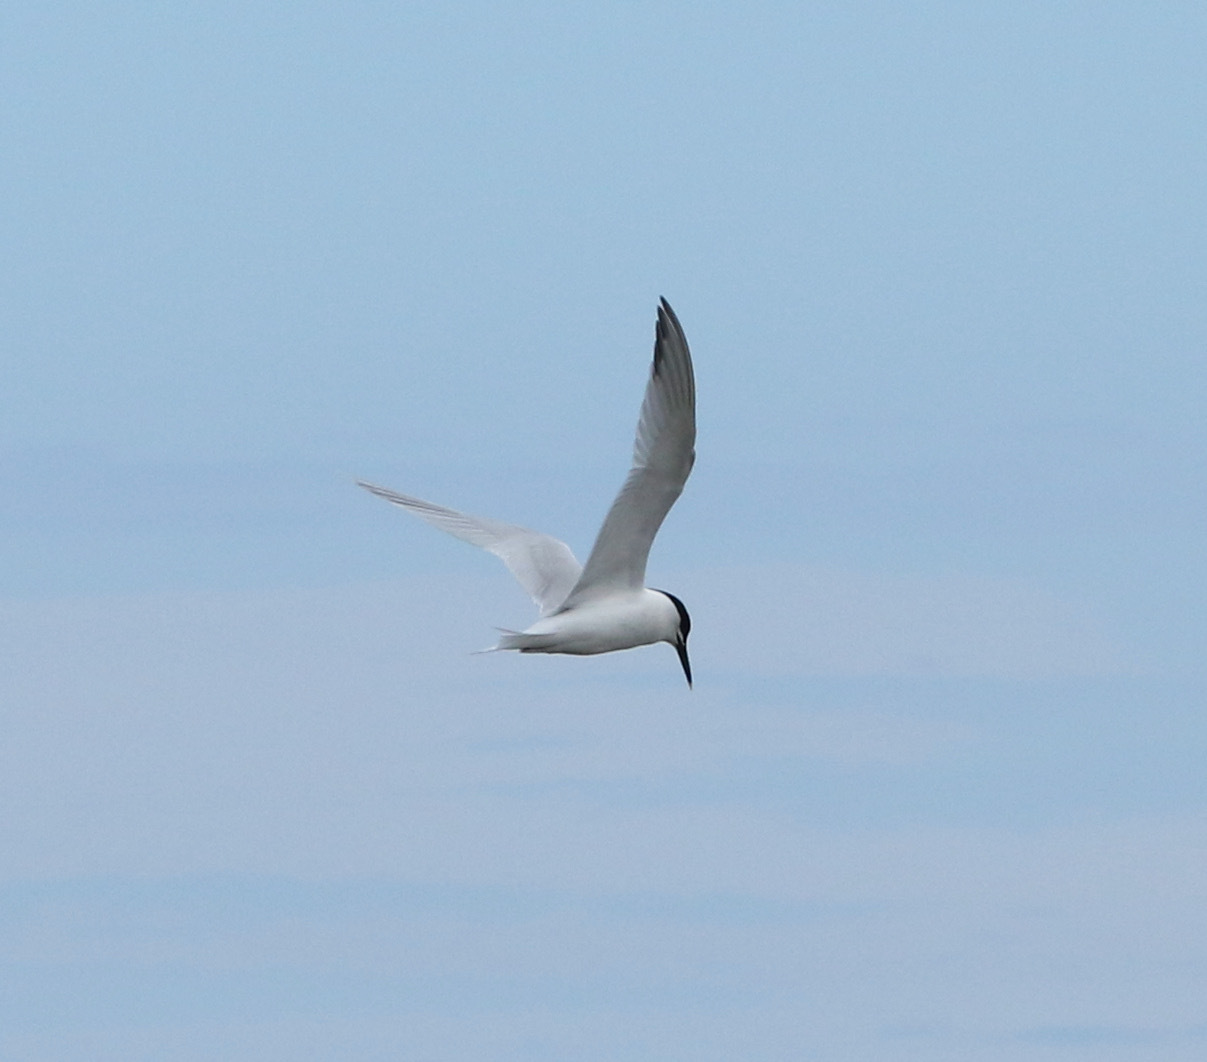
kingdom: Animalia
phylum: Chordata
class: Aves
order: Charadriiformes
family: Laridae
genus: Thalasseus
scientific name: Thalasseus sandvicensis
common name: Sandwich tern
